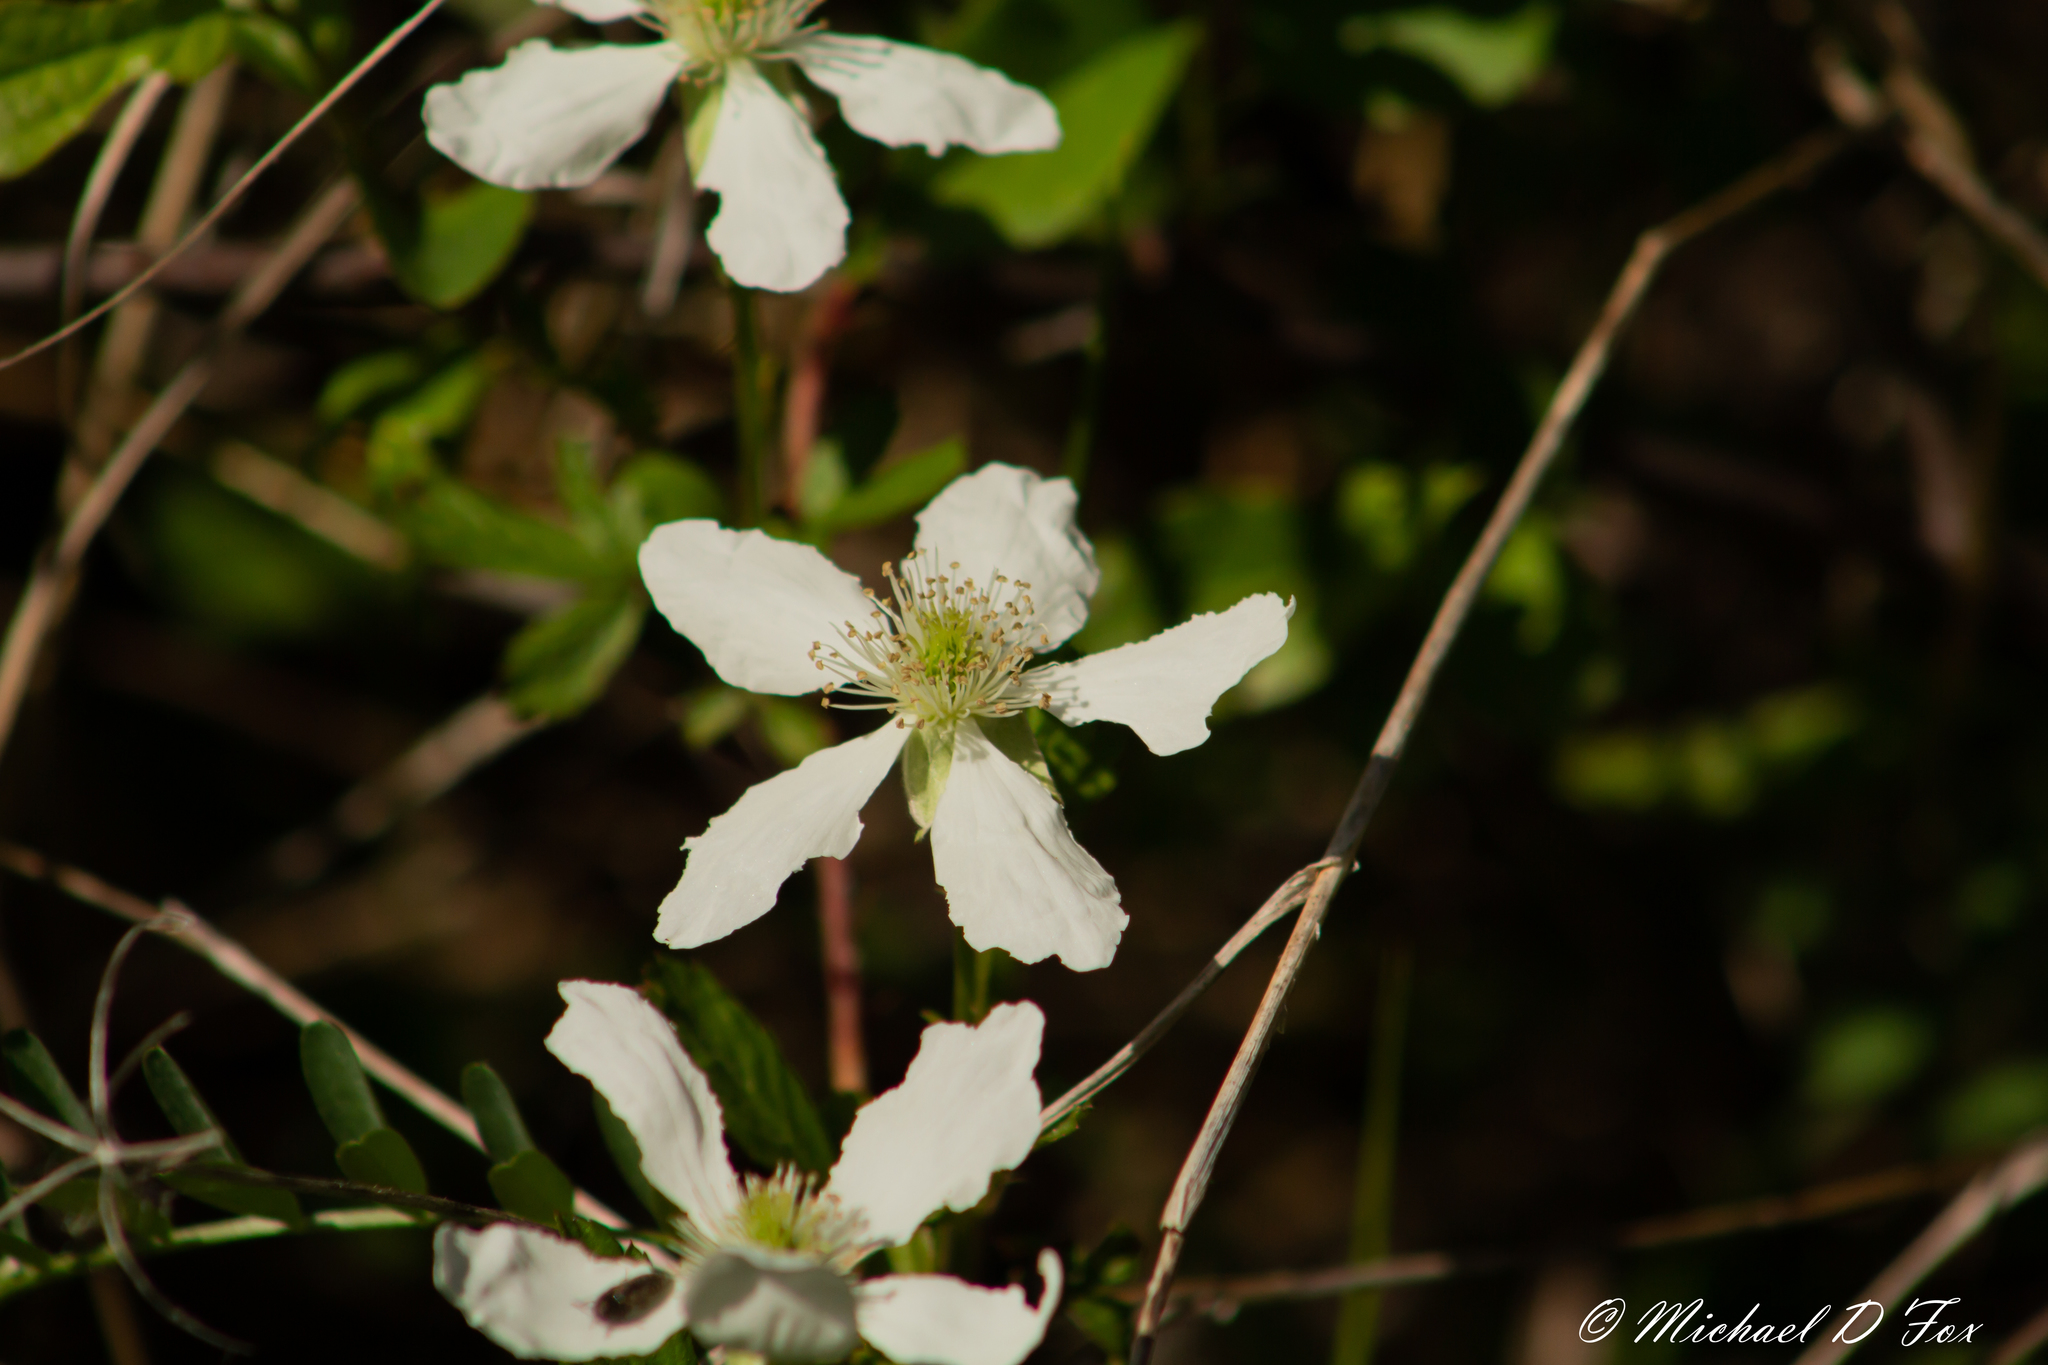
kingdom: Plantae
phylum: Tracheophyta
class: Magnoliopsida
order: Rosales
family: Rosaceae
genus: Rubus
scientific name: Rubus trivialis
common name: Southern dewberry
